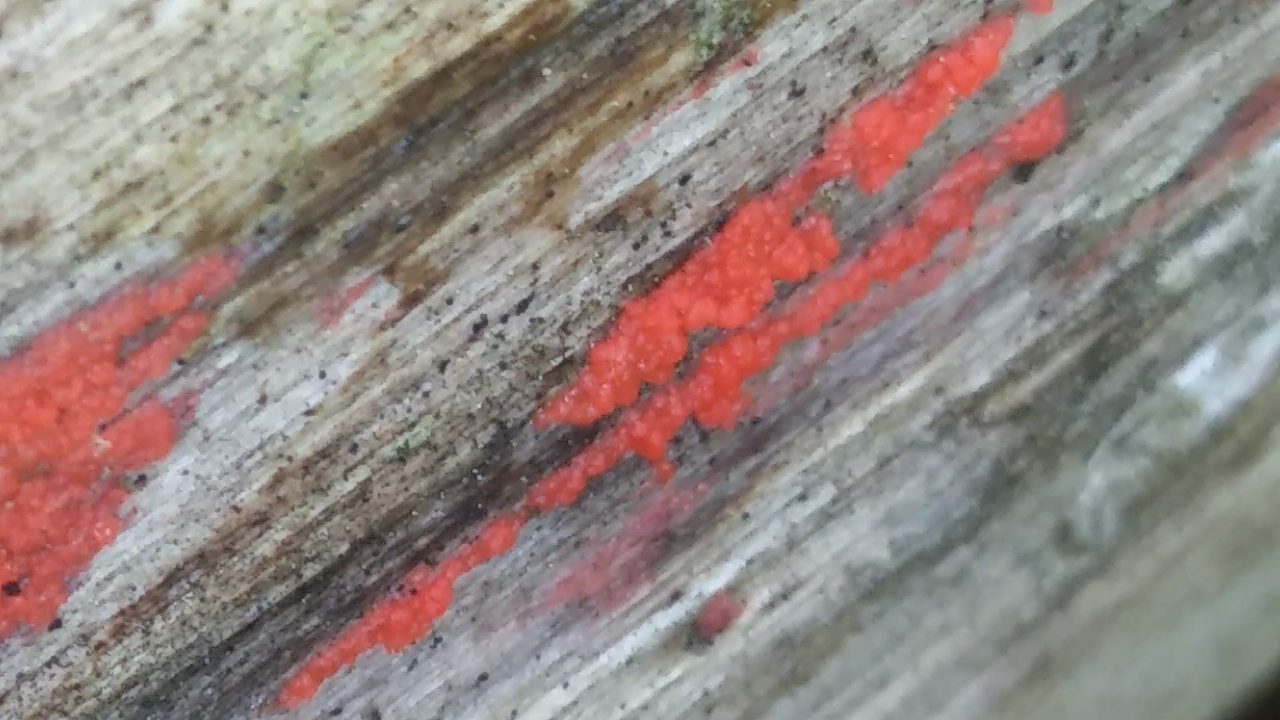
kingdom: Fungi
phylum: Basidiomycota
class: Agaricomycetes
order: Cantharellales
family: Tulasnellaceae
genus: Tulasnella
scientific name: Tulasnella aurantiaca
